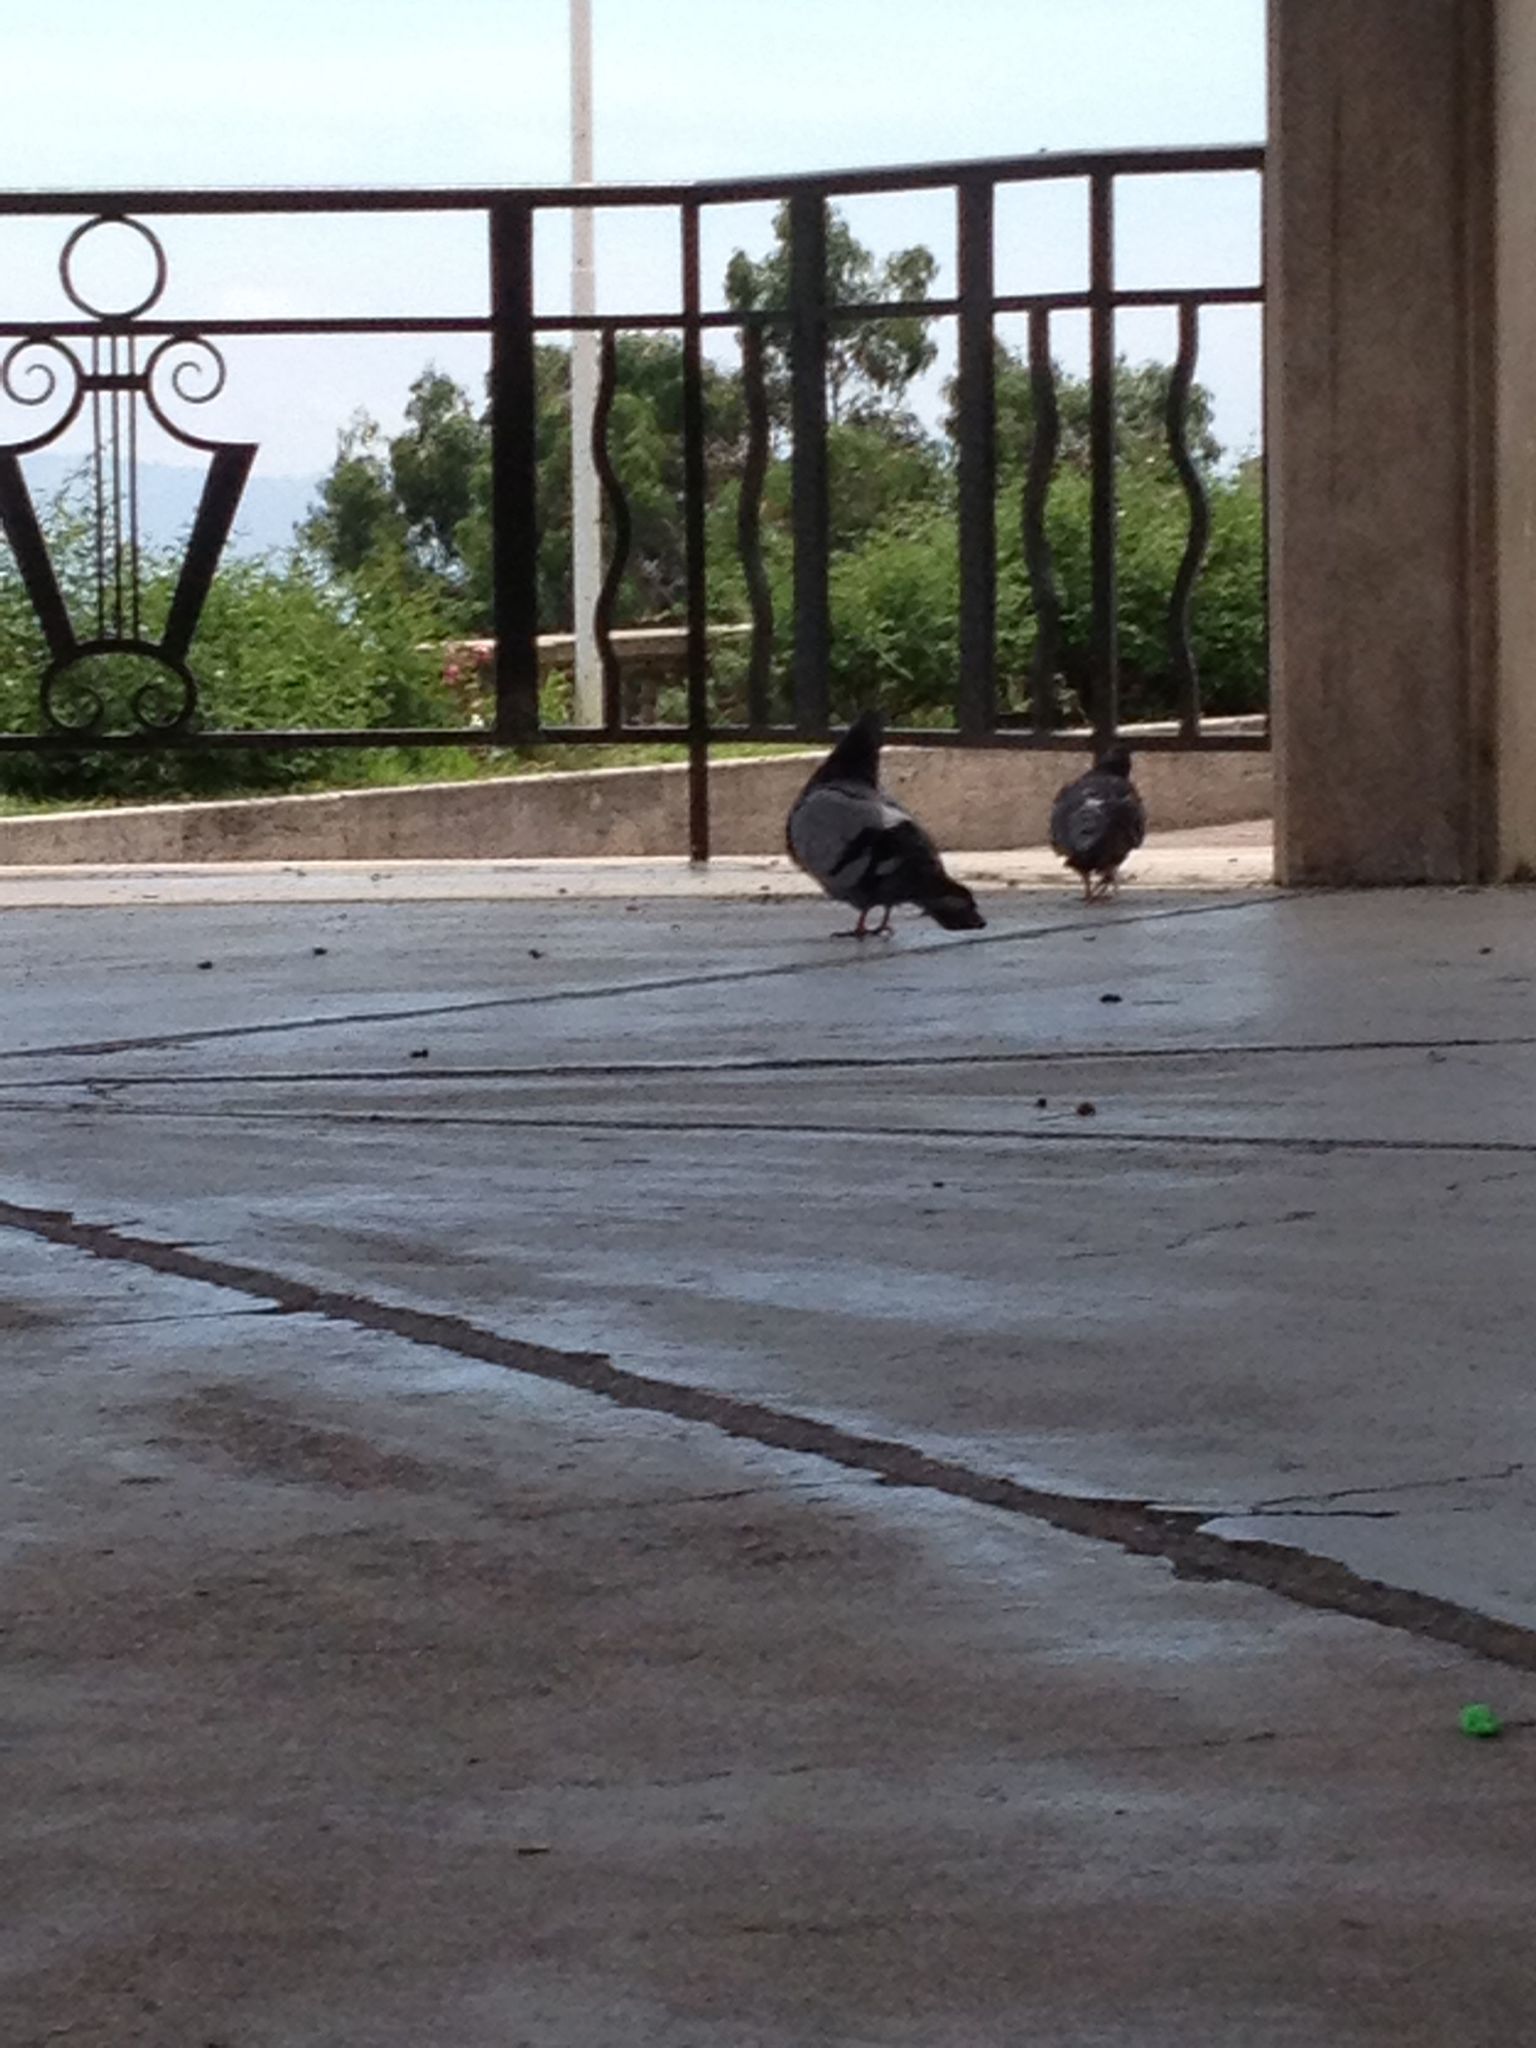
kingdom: Animalia
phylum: Chordata
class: Aves
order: Columbiformes
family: Columbidae
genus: Columba
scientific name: Columba livia
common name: Rock pigeon
